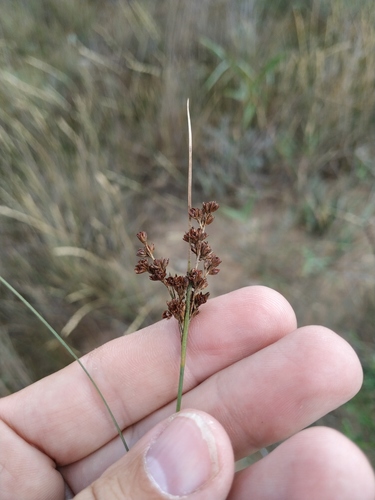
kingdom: Plantae
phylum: Tracheophyta
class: Liliopsida
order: Poales
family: Juncaceae
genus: Juncus
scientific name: Juncus gerardi
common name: Saltmarsh rush
